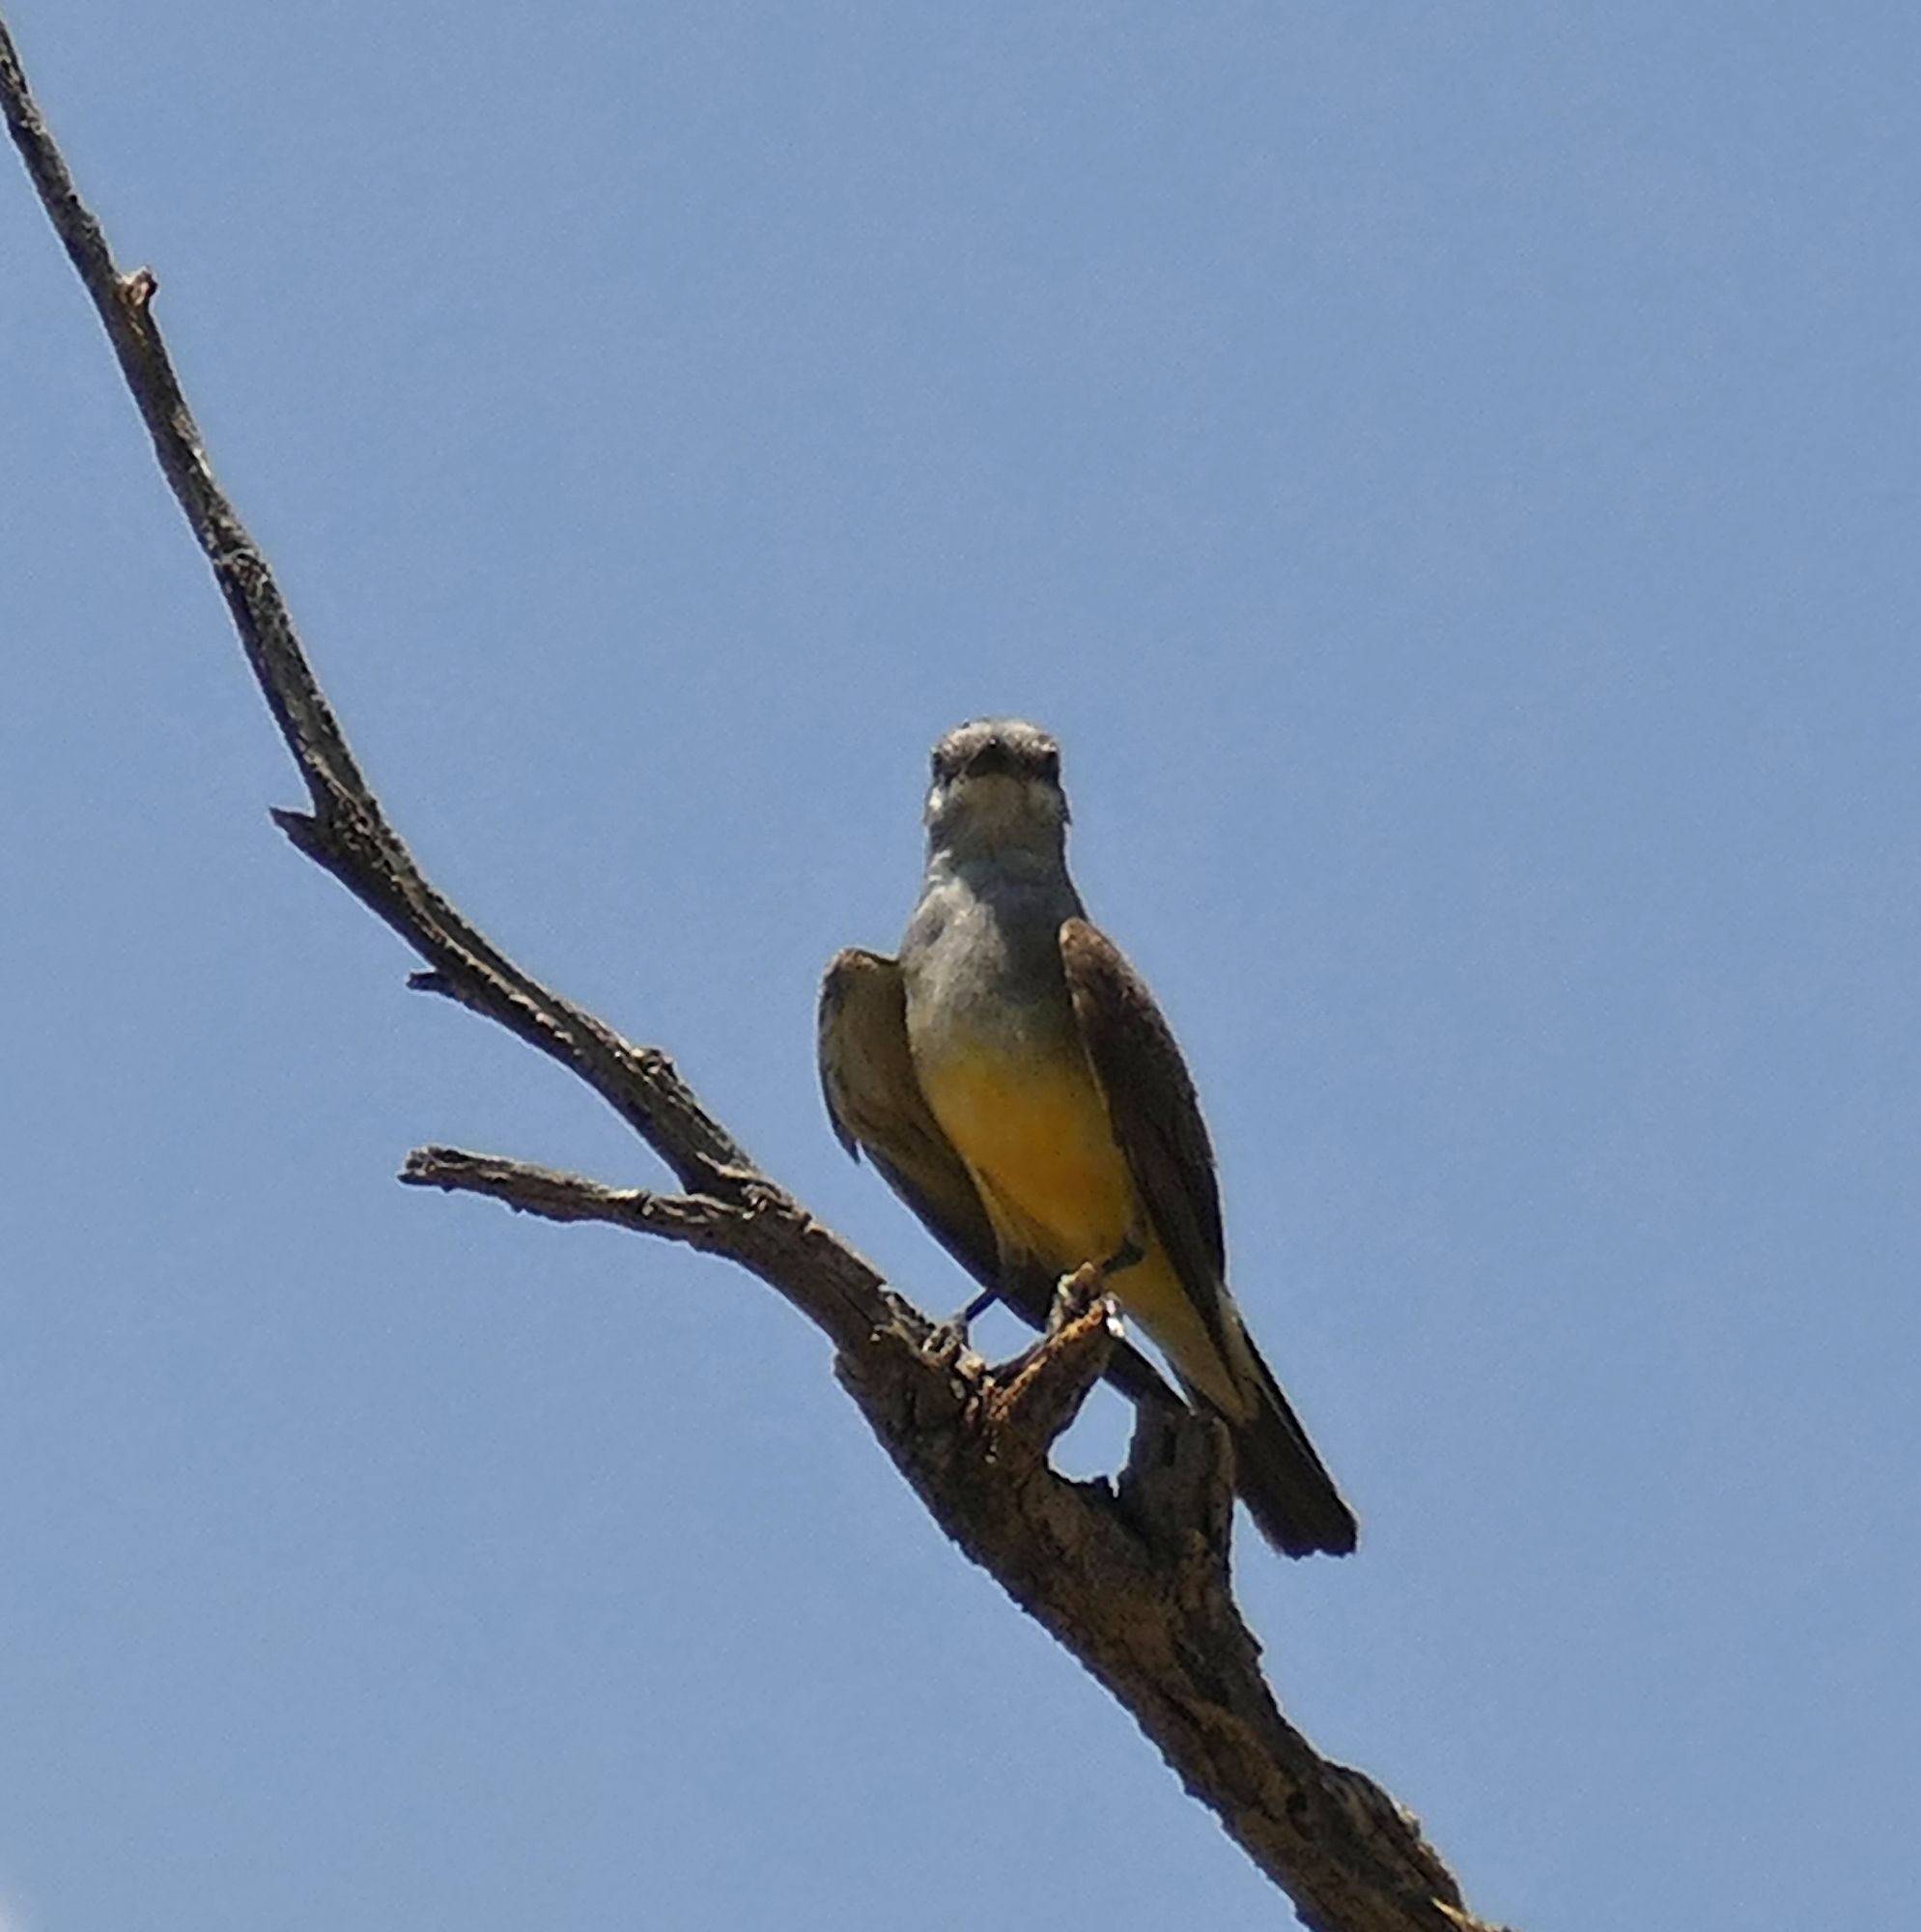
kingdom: Animalia
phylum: Chordata
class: Aves
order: Passeriformes
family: Tyrannidae
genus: Tyrannus
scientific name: Tyrannus vociferans
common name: Cassin's kingbird
